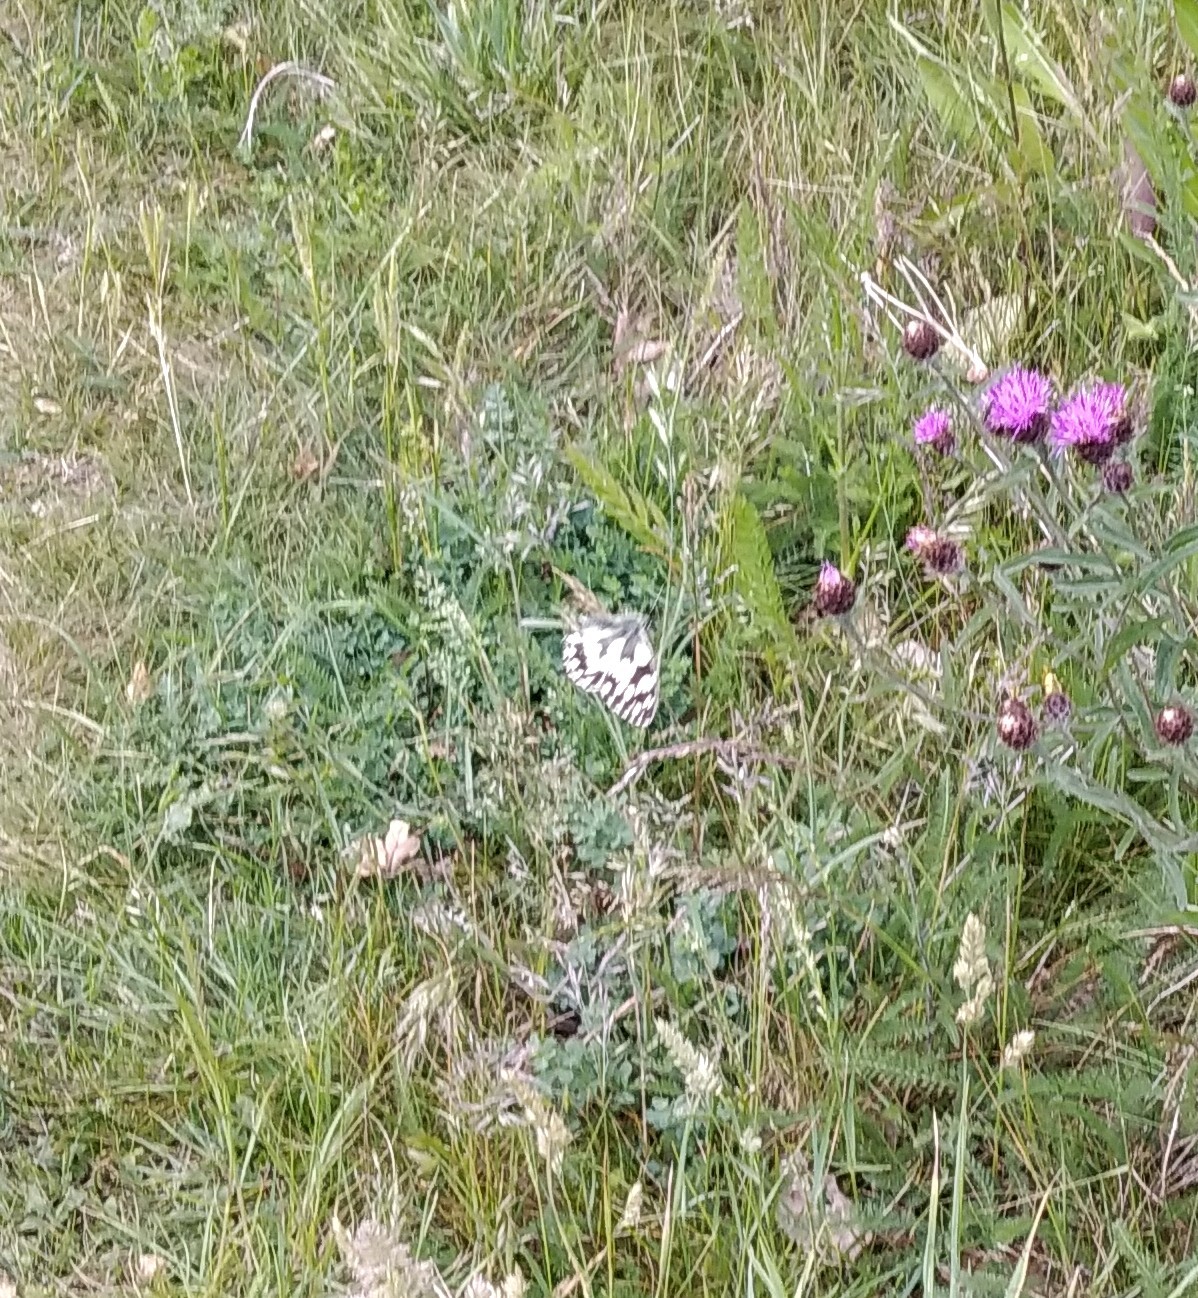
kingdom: Animalia
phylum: Arthropoda
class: Insecta
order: Lepidoptera
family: Nymphalidae
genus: Melanargia
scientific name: Melanargia galathea
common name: Marbled white
